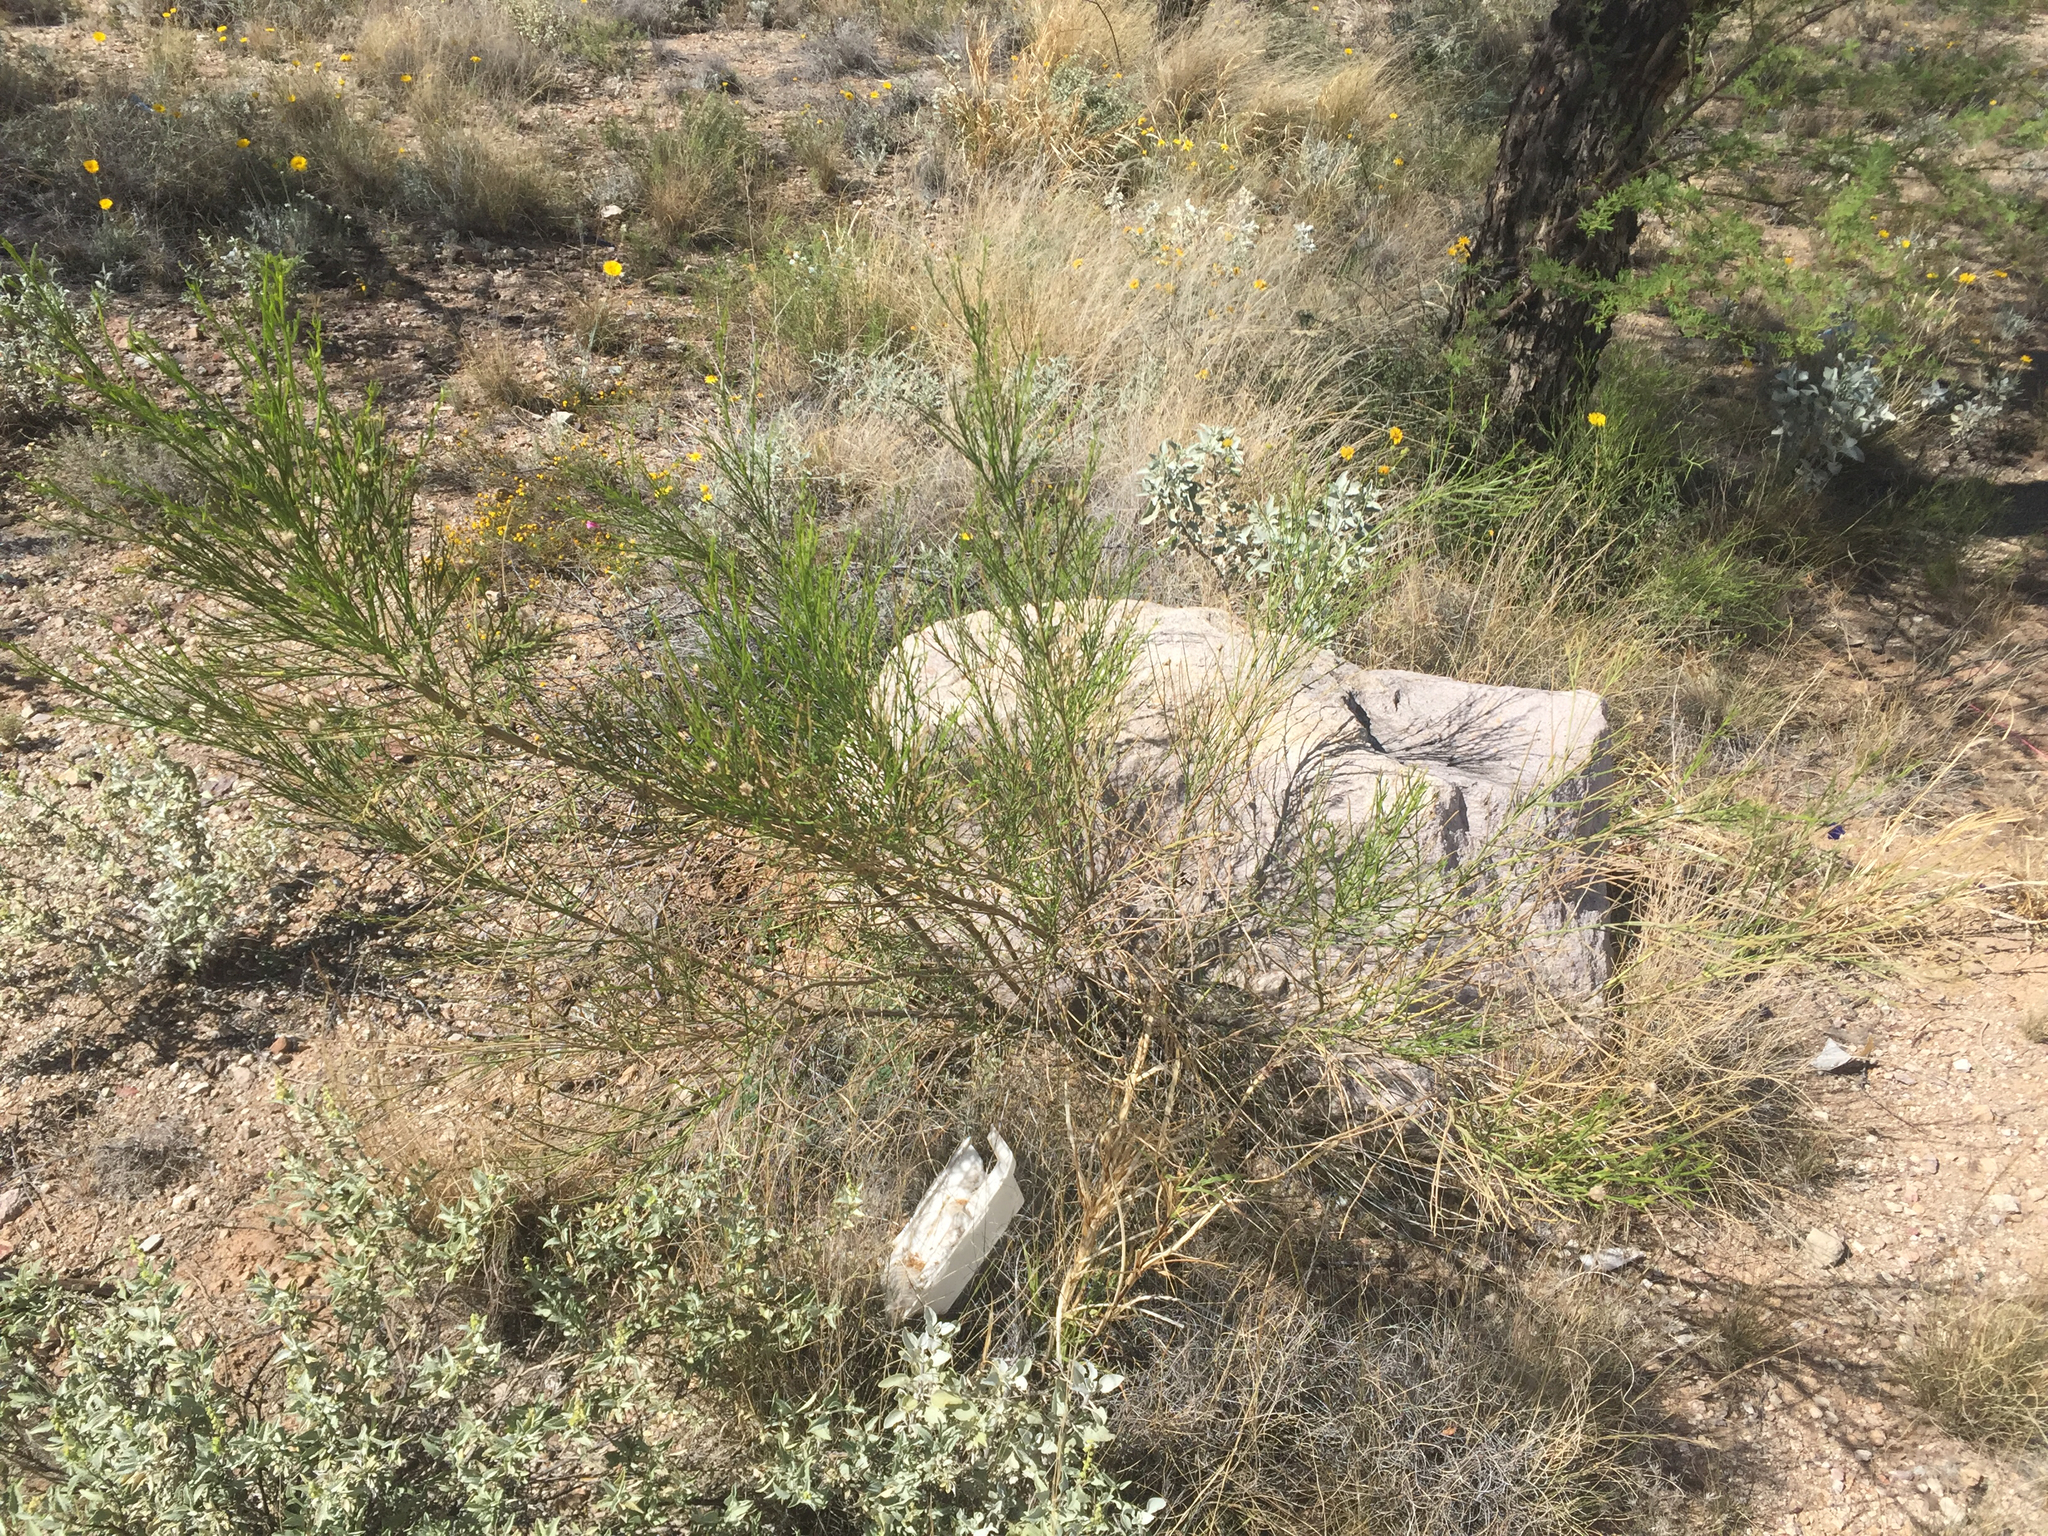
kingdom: Plantae
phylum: Tracheophyta
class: Magnoliopsida
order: Asterales
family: Asteraceae
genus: Baccharis
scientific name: Baccharis sarothroides
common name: Desert-broom
